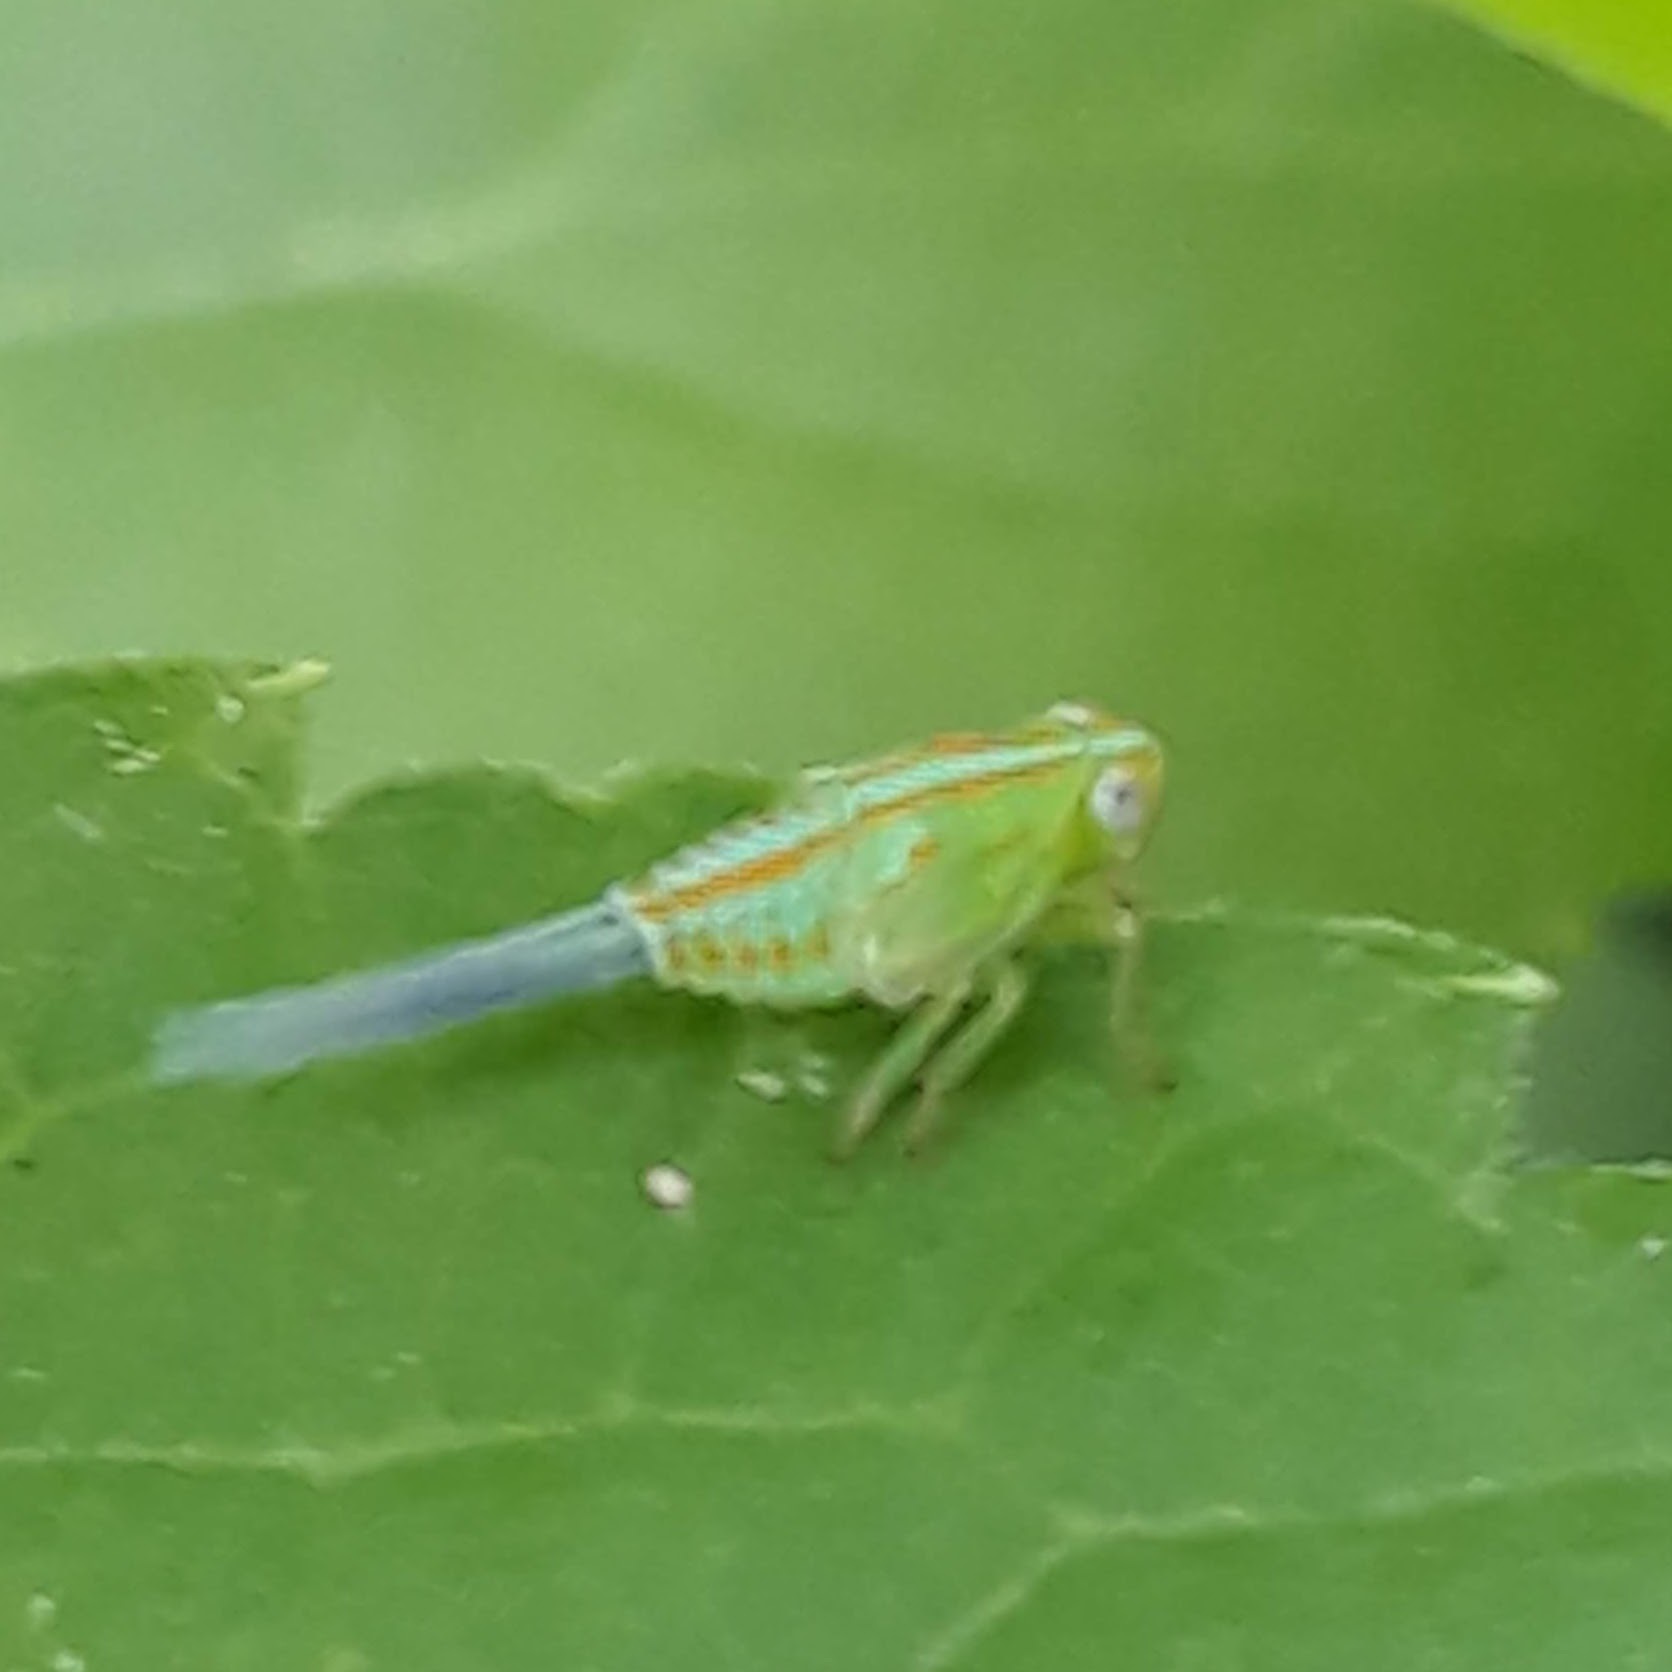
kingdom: Animalia
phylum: Arthropoda
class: Insecta
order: Hemiptera
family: Issidae
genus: Aplos
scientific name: Aplos simplex
